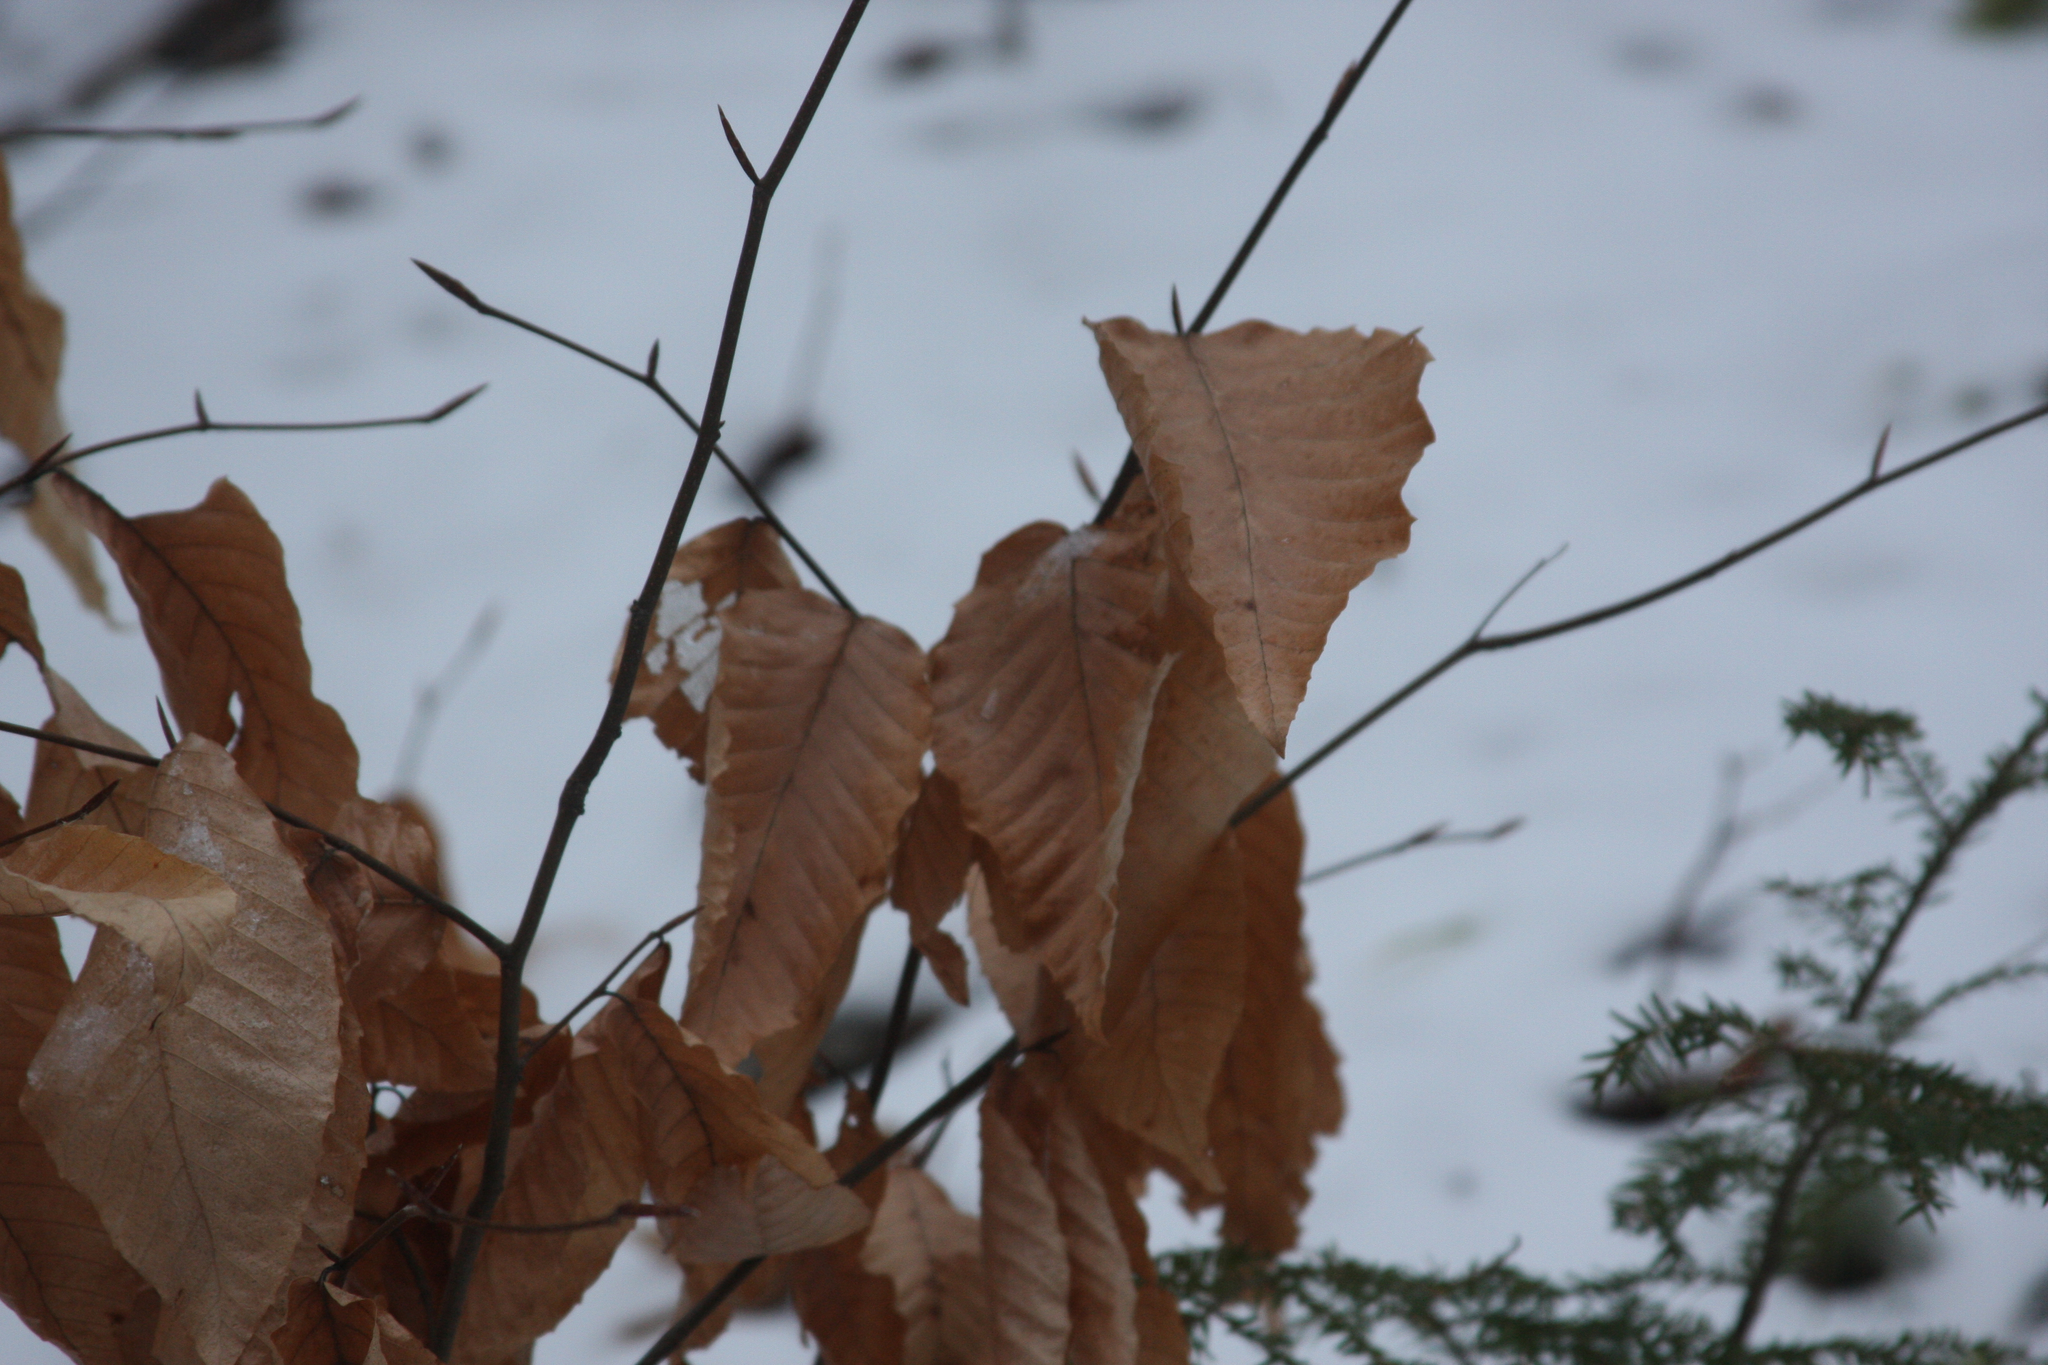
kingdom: Plantae
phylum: Tracheophyta
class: Magnoliopsida
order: Fagales
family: Fagaceae
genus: Fagus
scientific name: Fagus grandifolia
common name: American beech
